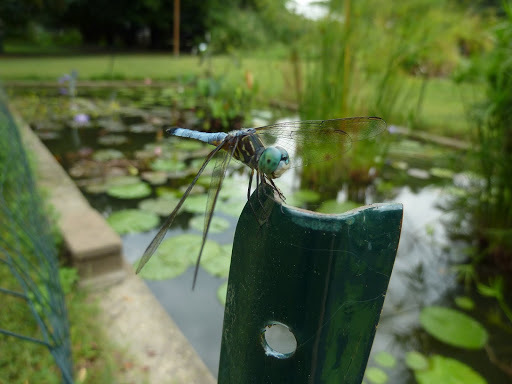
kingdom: Animalia
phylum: Arthropoda
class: Insecta
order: Odonata
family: Libellulidae
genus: Pachydiplax
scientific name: Pachydiplax longipennis
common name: Blue dasher
